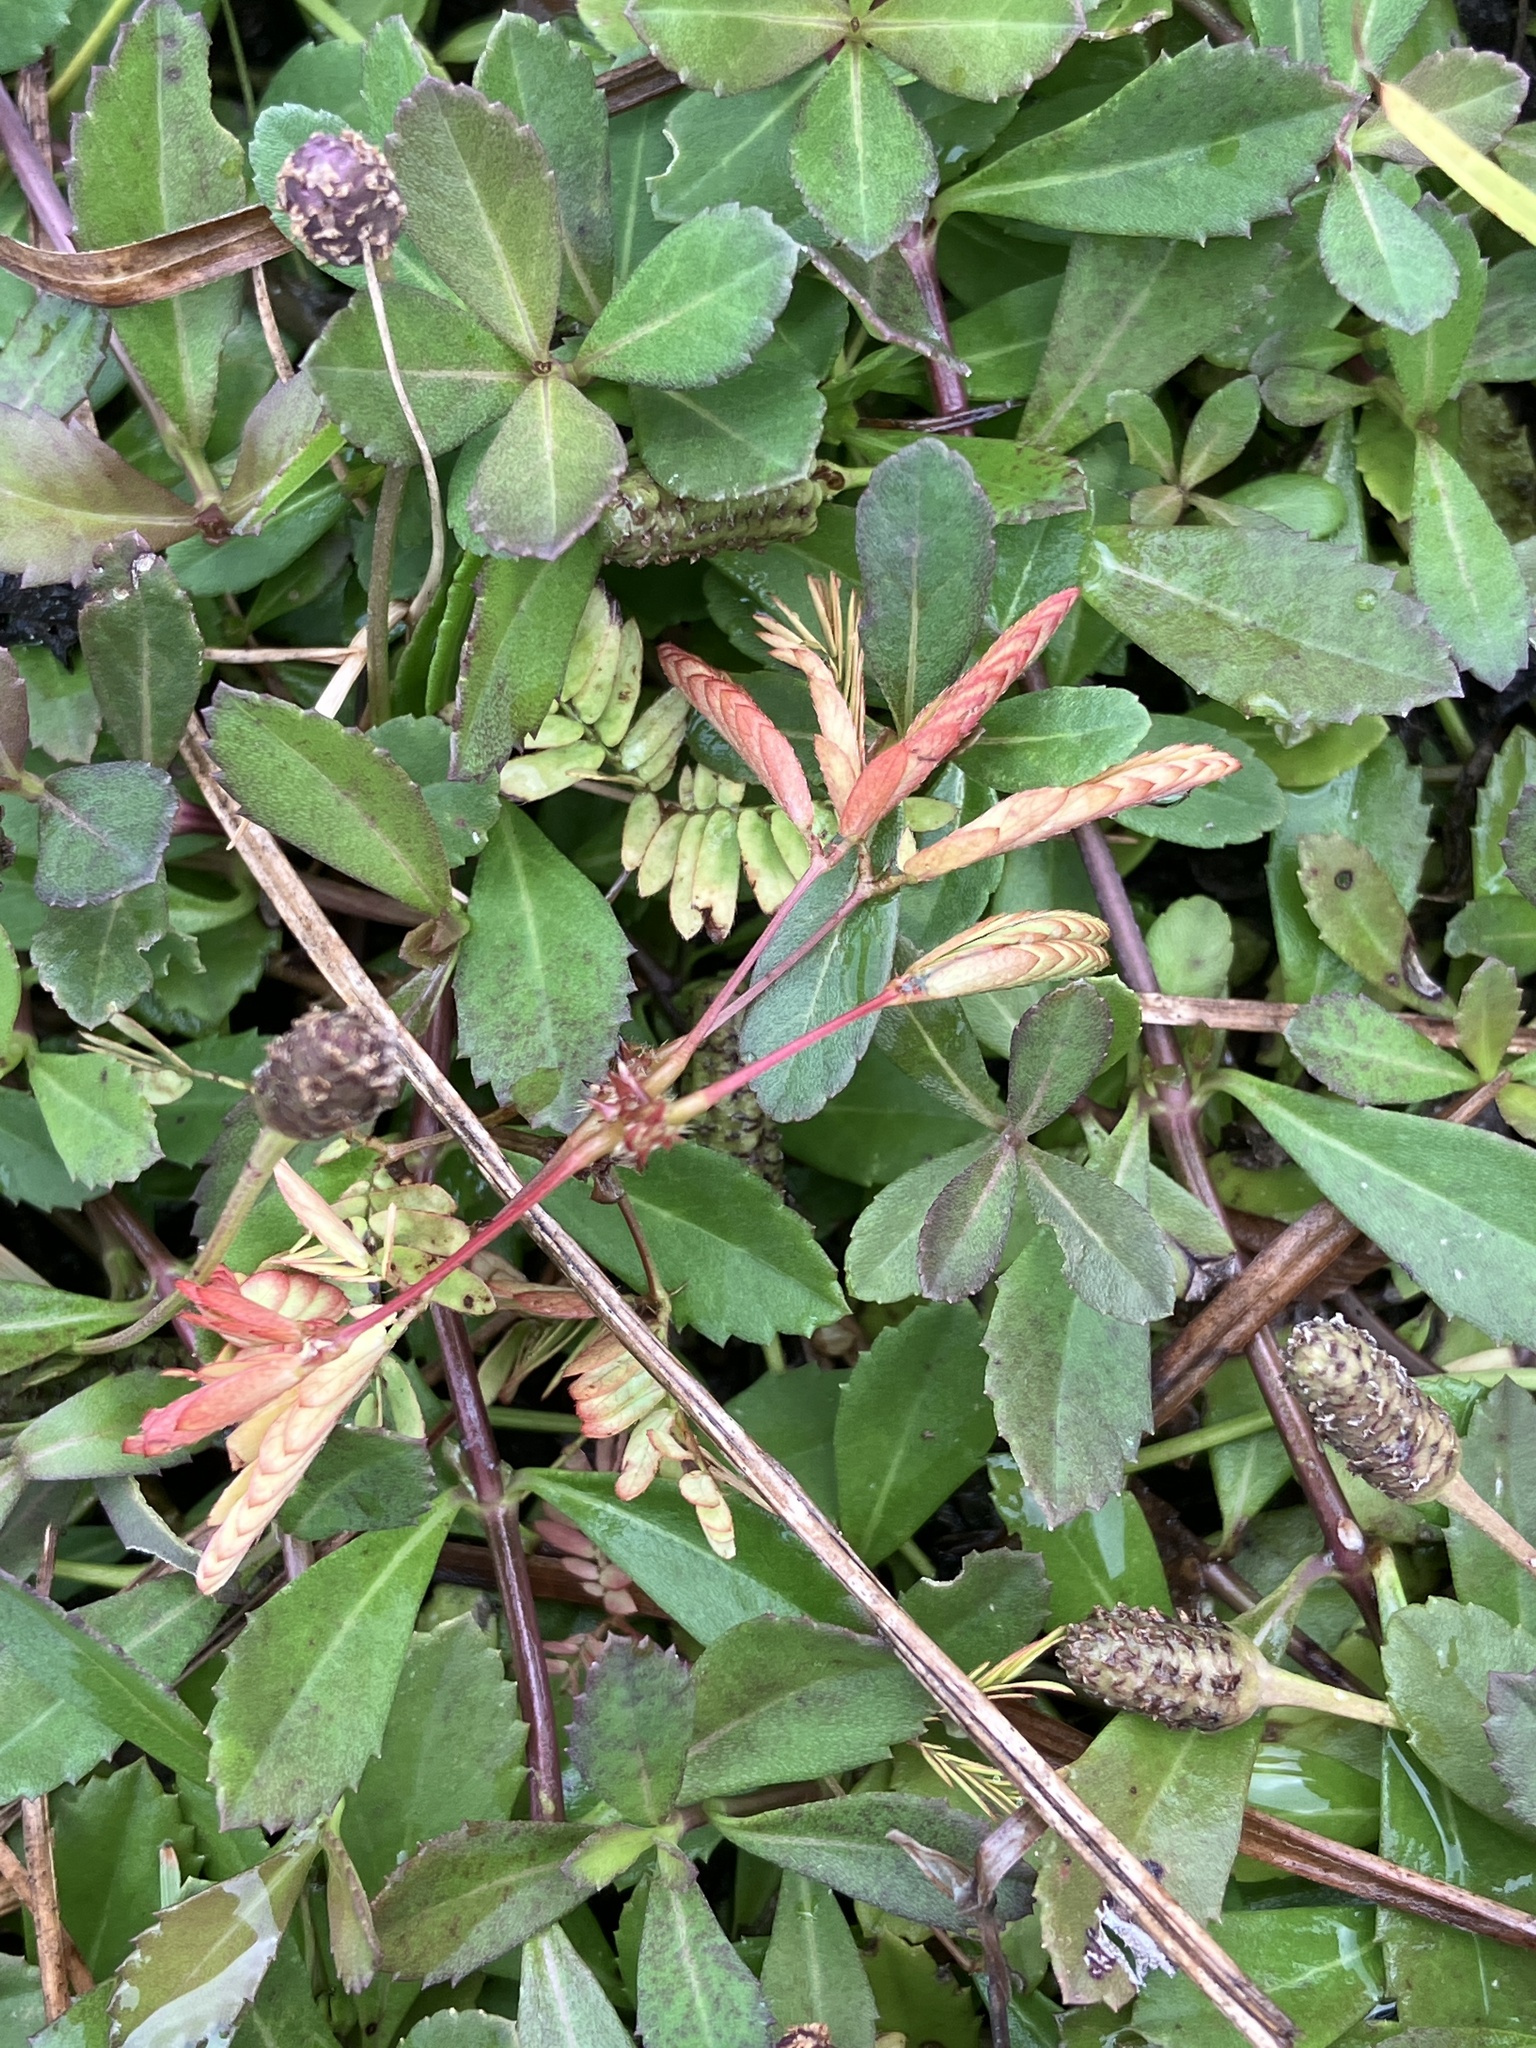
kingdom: Plantae
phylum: Tracheophyta
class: Magnoliopsida
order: Fabales
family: Fabaceae
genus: Mimosa
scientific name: Mimosa pudica
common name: Sensitive plant
